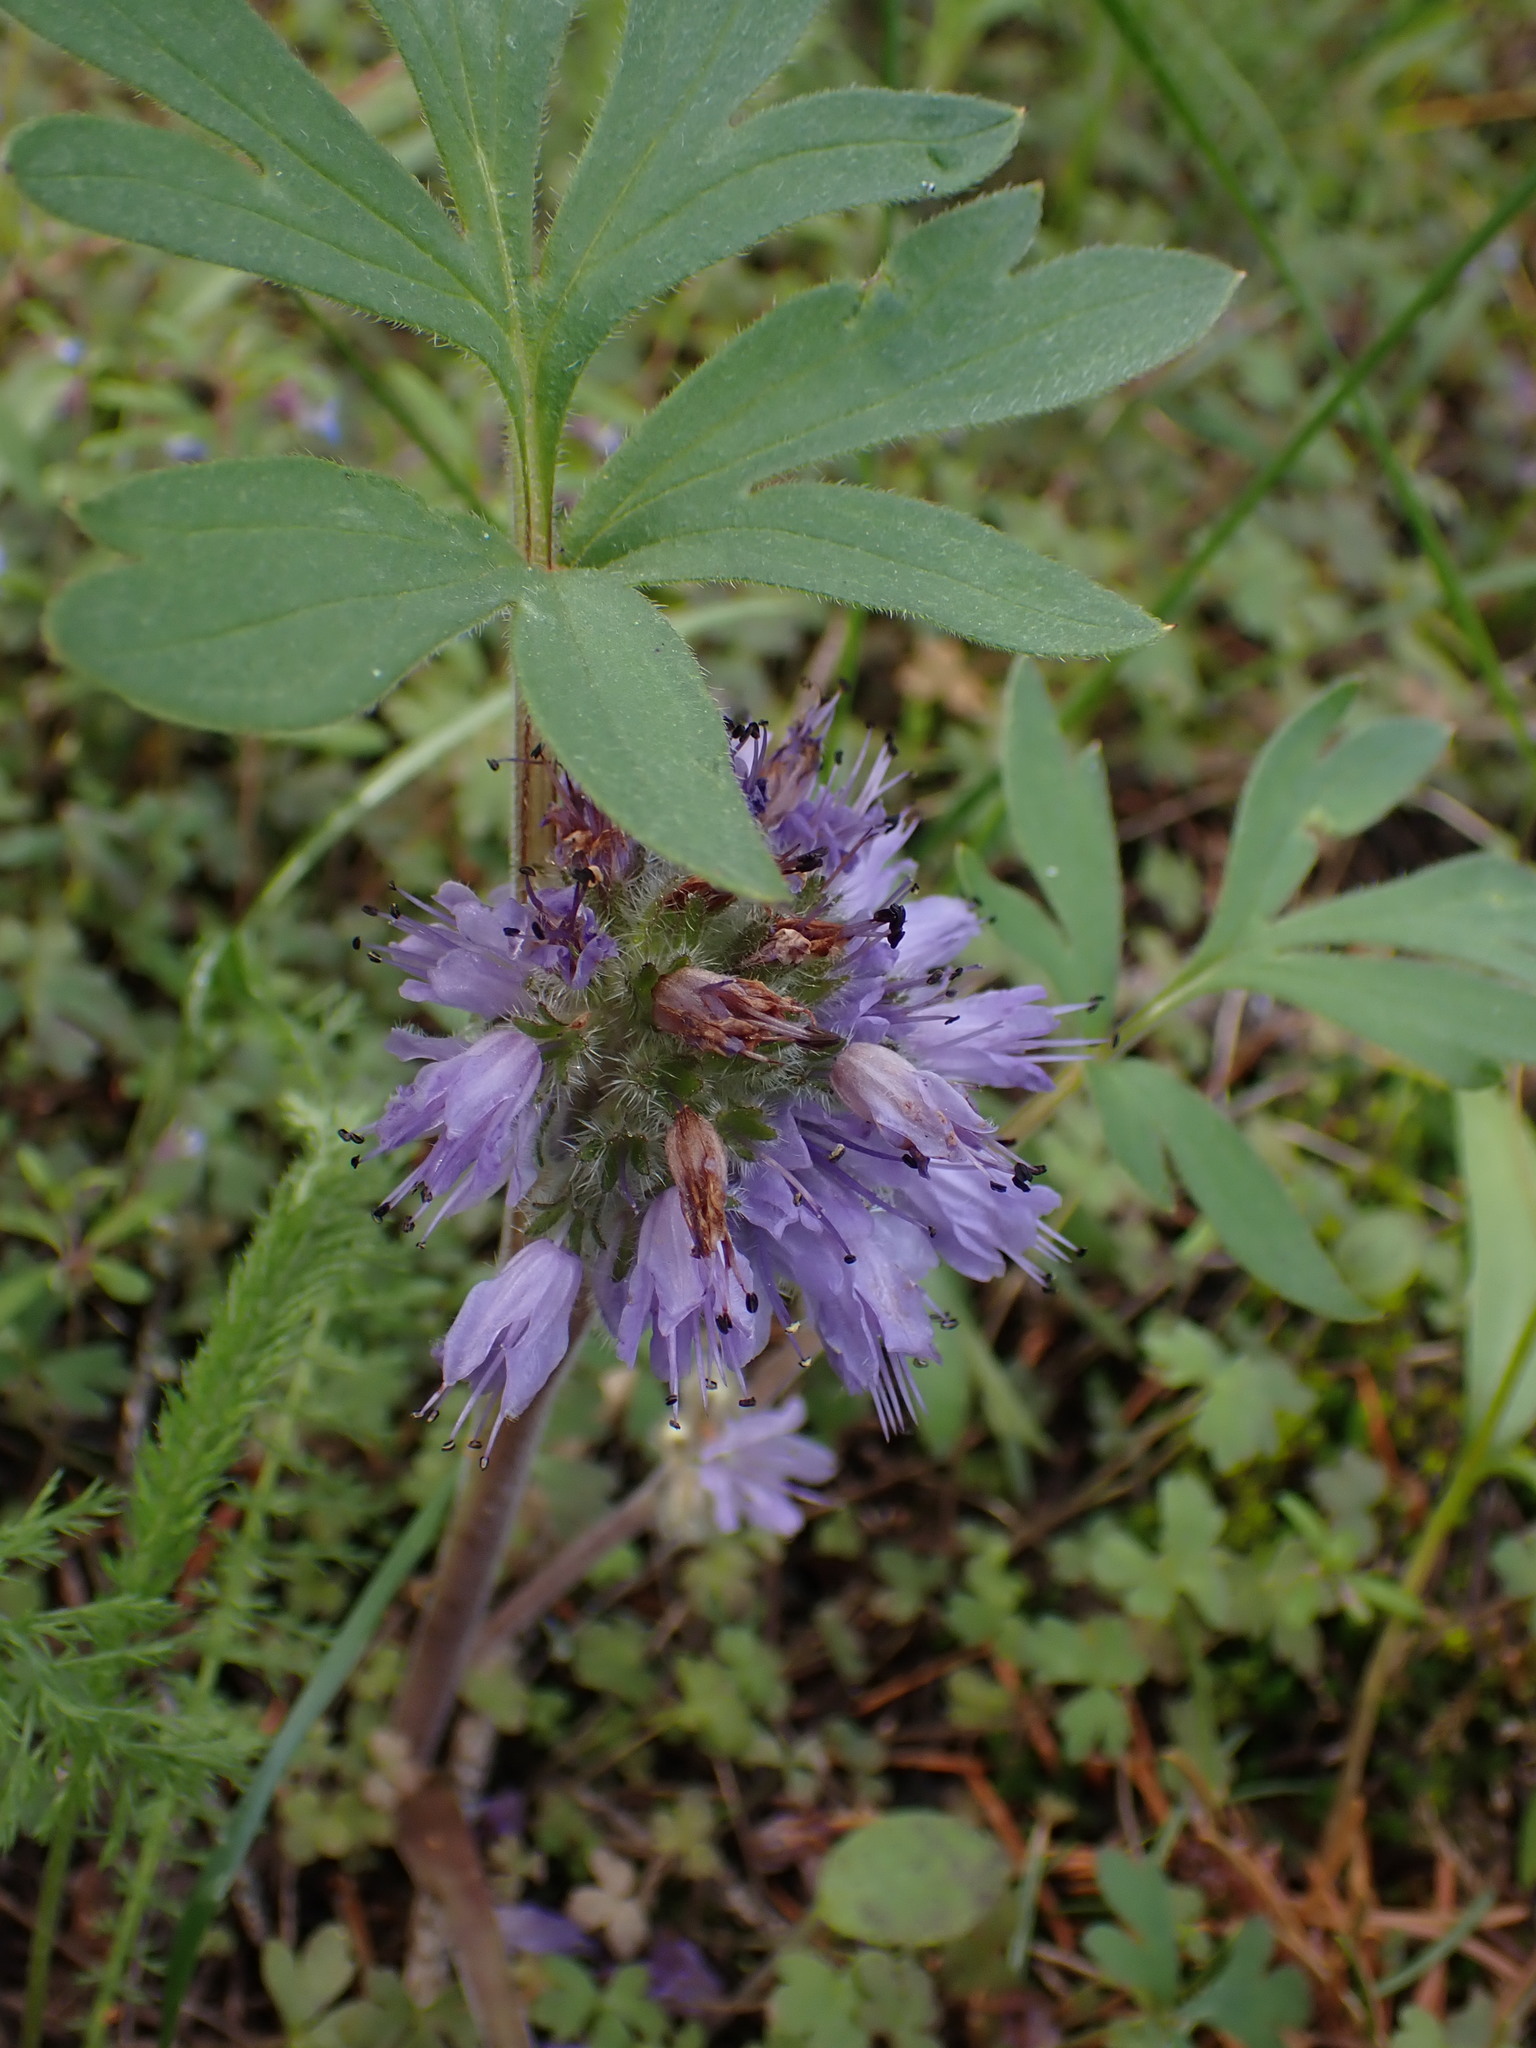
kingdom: Plantae
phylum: Tracheophyta
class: Magnoliopsida
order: Boraginales
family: Hydrophyllaceae
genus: Hydrophyllum
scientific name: Hydrophyllum capitatum
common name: Woollen-breeches
